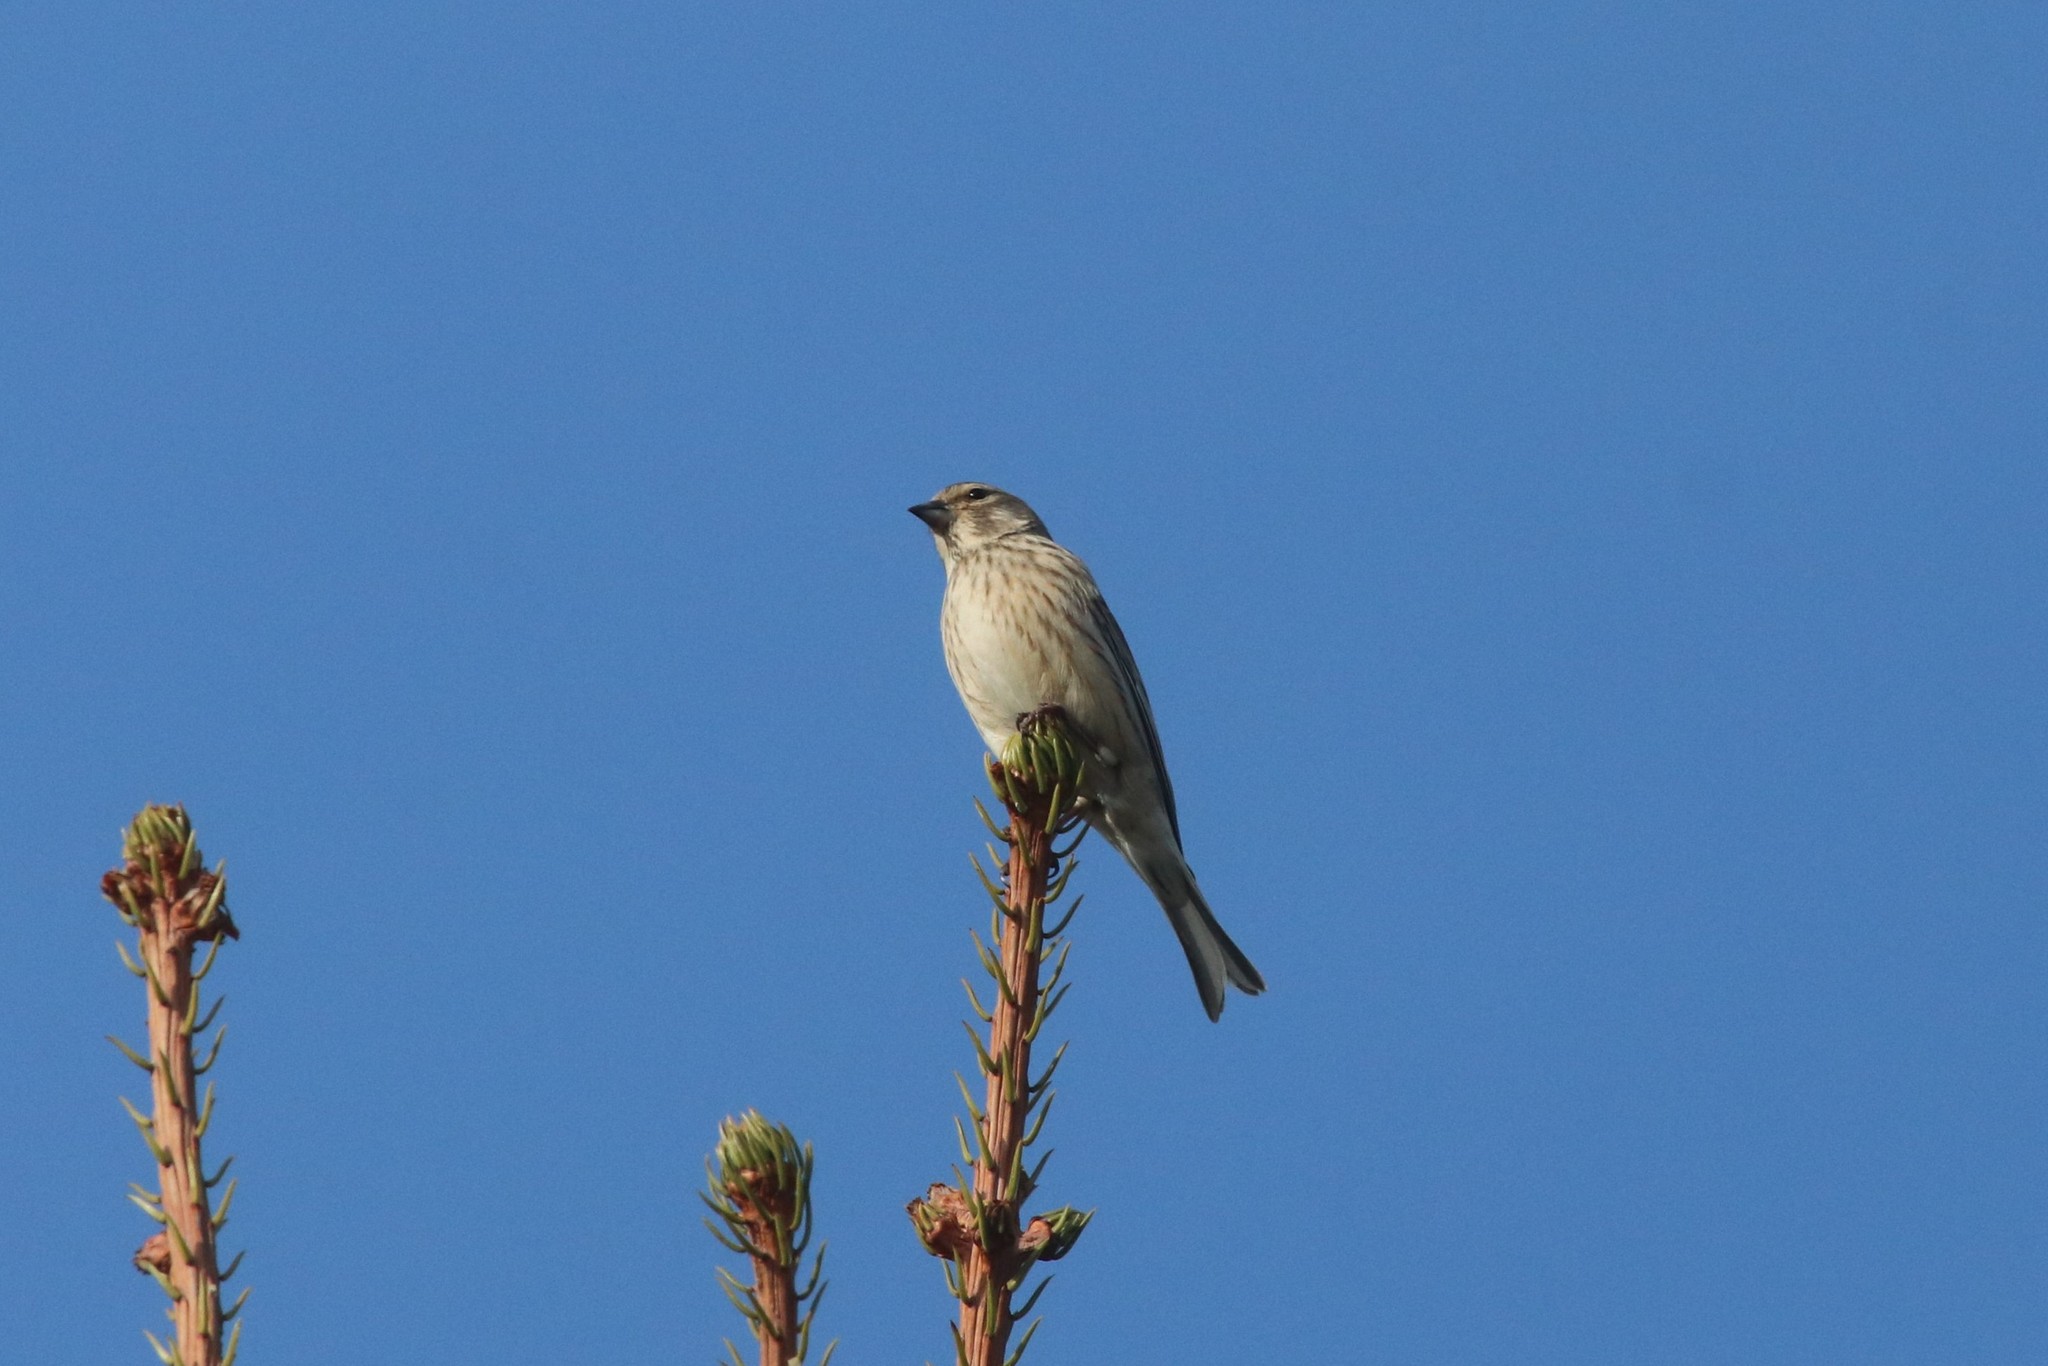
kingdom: Animalia
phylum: Chordata
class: Aves
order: Passeriformes
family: Fringillidae
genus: Linaria
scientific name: Linaria cannabina
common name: Common linnet
